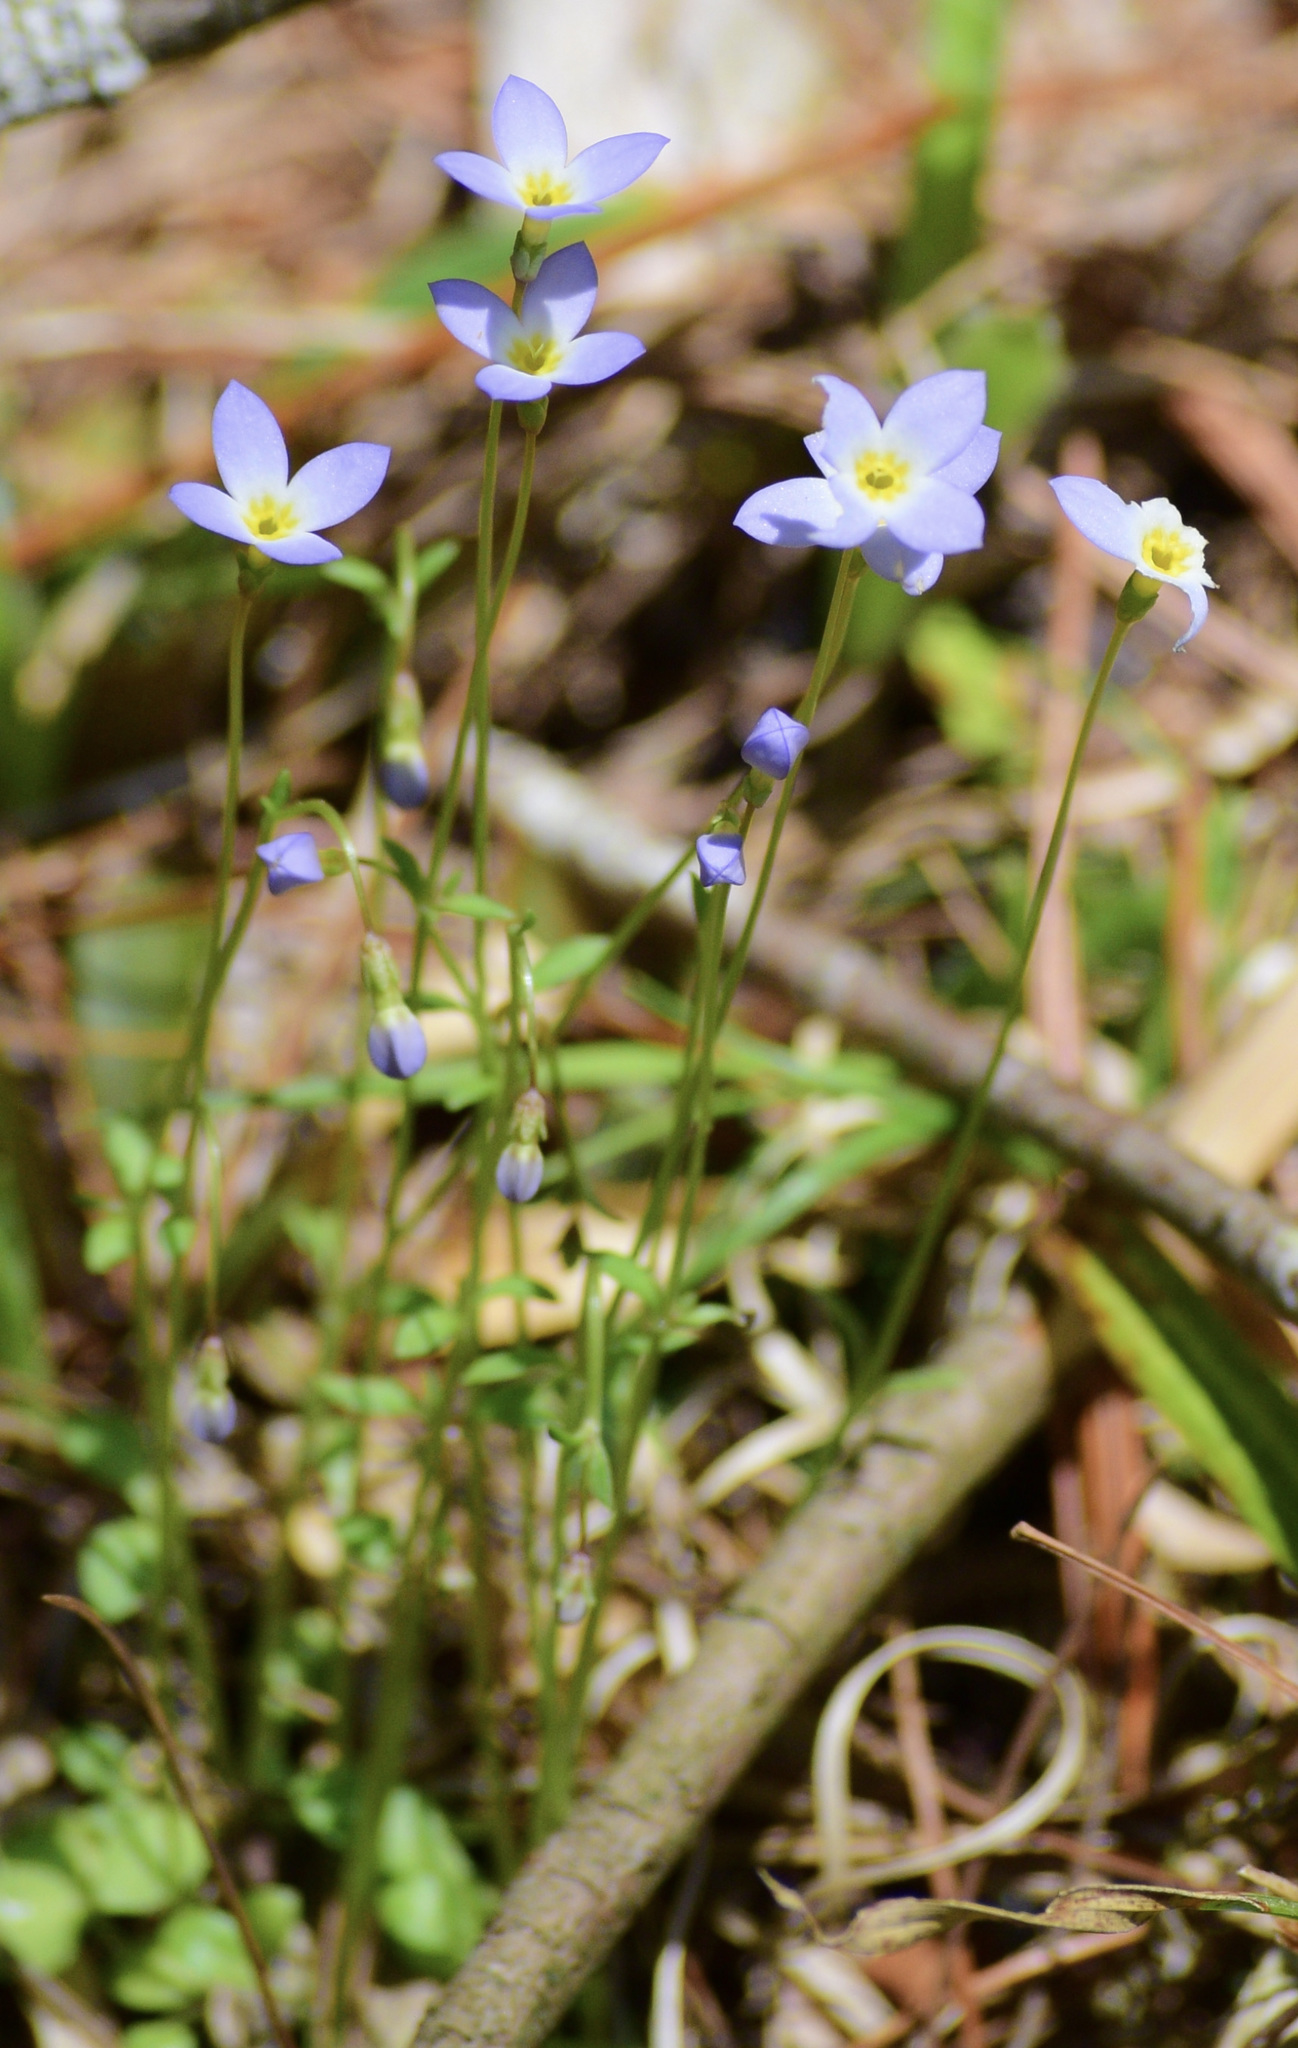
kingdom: Plantae
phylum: Tracheophyta
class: Magnoliopsida
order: Gentianales
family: Rubiaceae
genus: Houstonia
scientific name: Houstonia caerulea
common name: Bluets
